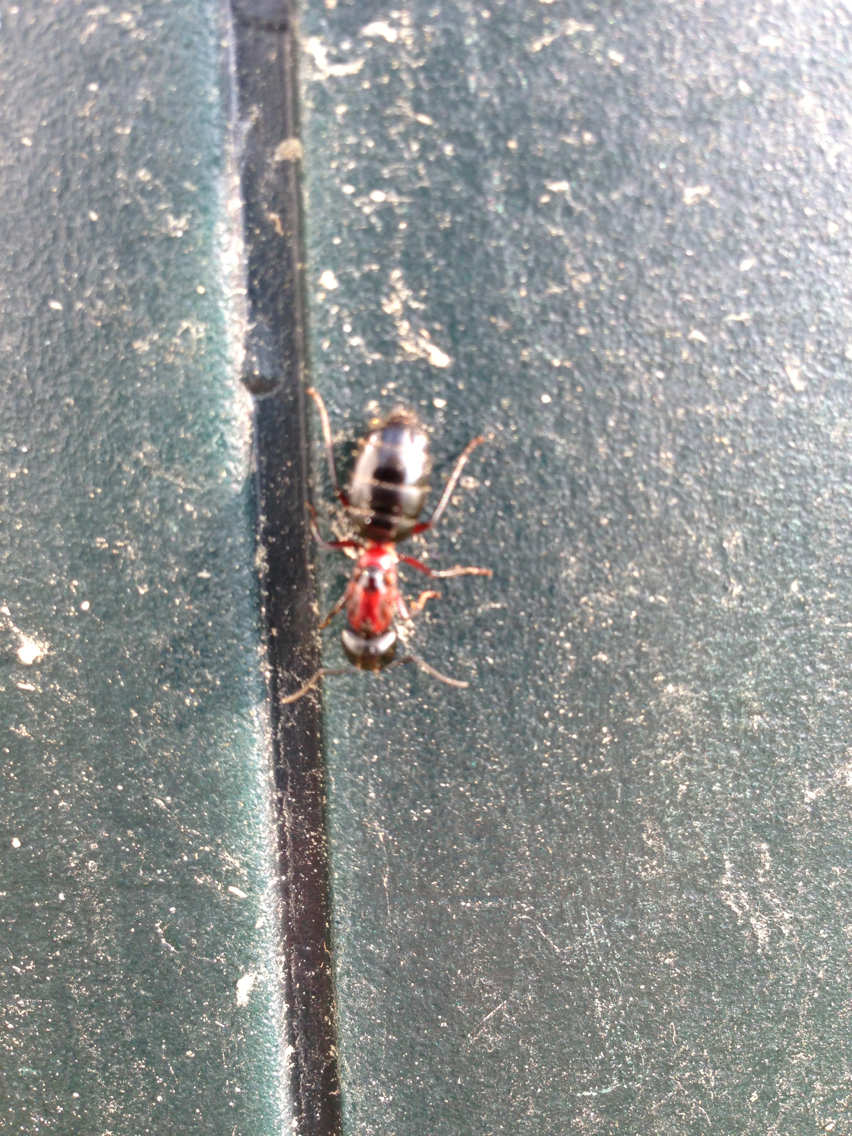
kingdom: Animalia
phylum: Arthropoda
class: Insecta
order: Hymenoptera
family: Formicidae
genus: Camponotus
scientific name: Camponotus novaeboracensis
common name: New york carpenter ant
